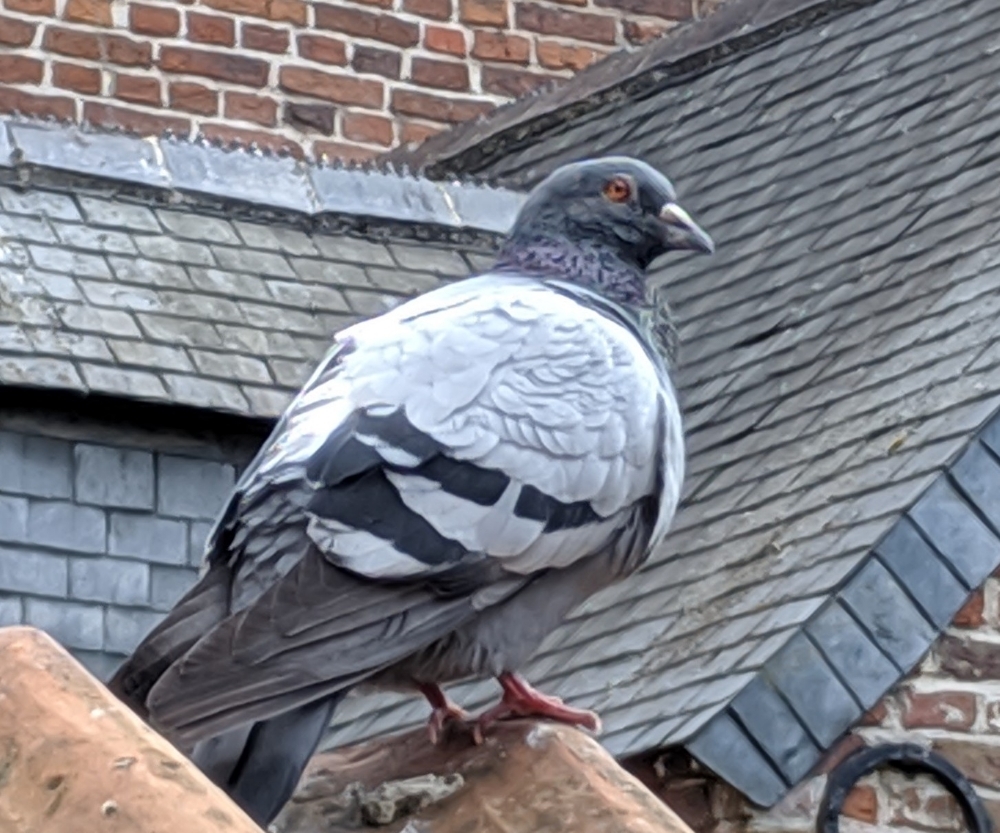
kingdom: Animalia
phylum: Chordata
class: Aves
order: Columbiformes
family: Columbidae
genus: Columba
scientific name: Columba livia
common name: Rock pigeon
